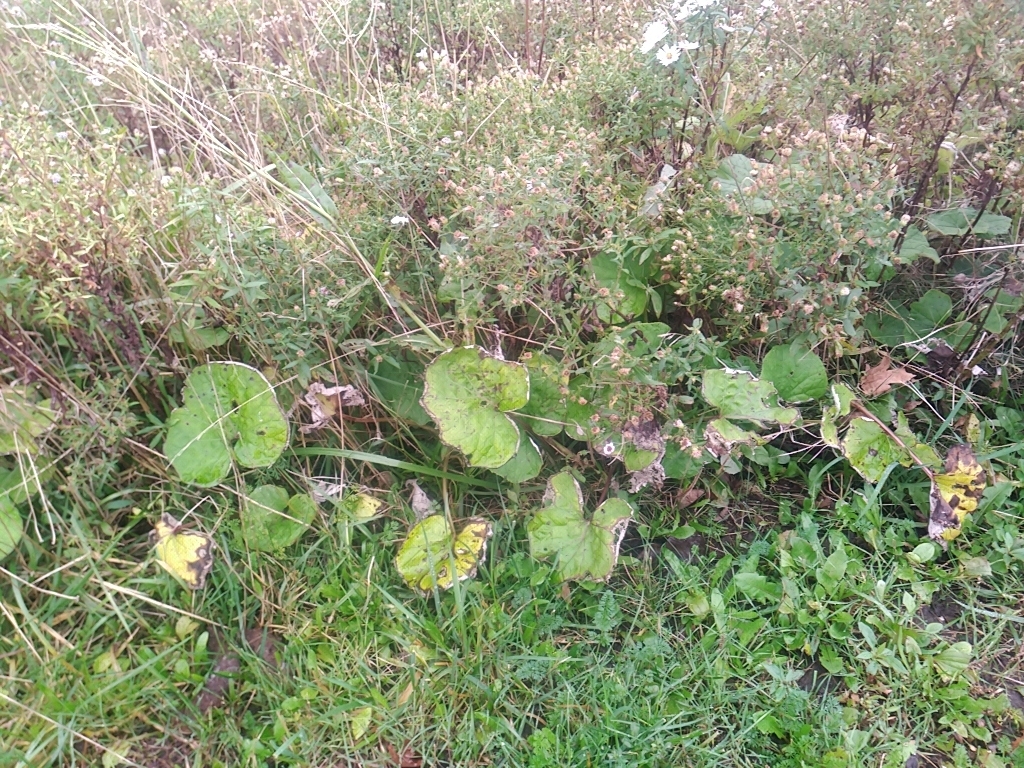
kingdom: Plantae
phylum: Tracheophyta
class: Magnoliopsida
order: Asterales
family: Asteraceae
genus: Tussilago
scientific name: Tussilago farfara
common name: Coltsfoot
